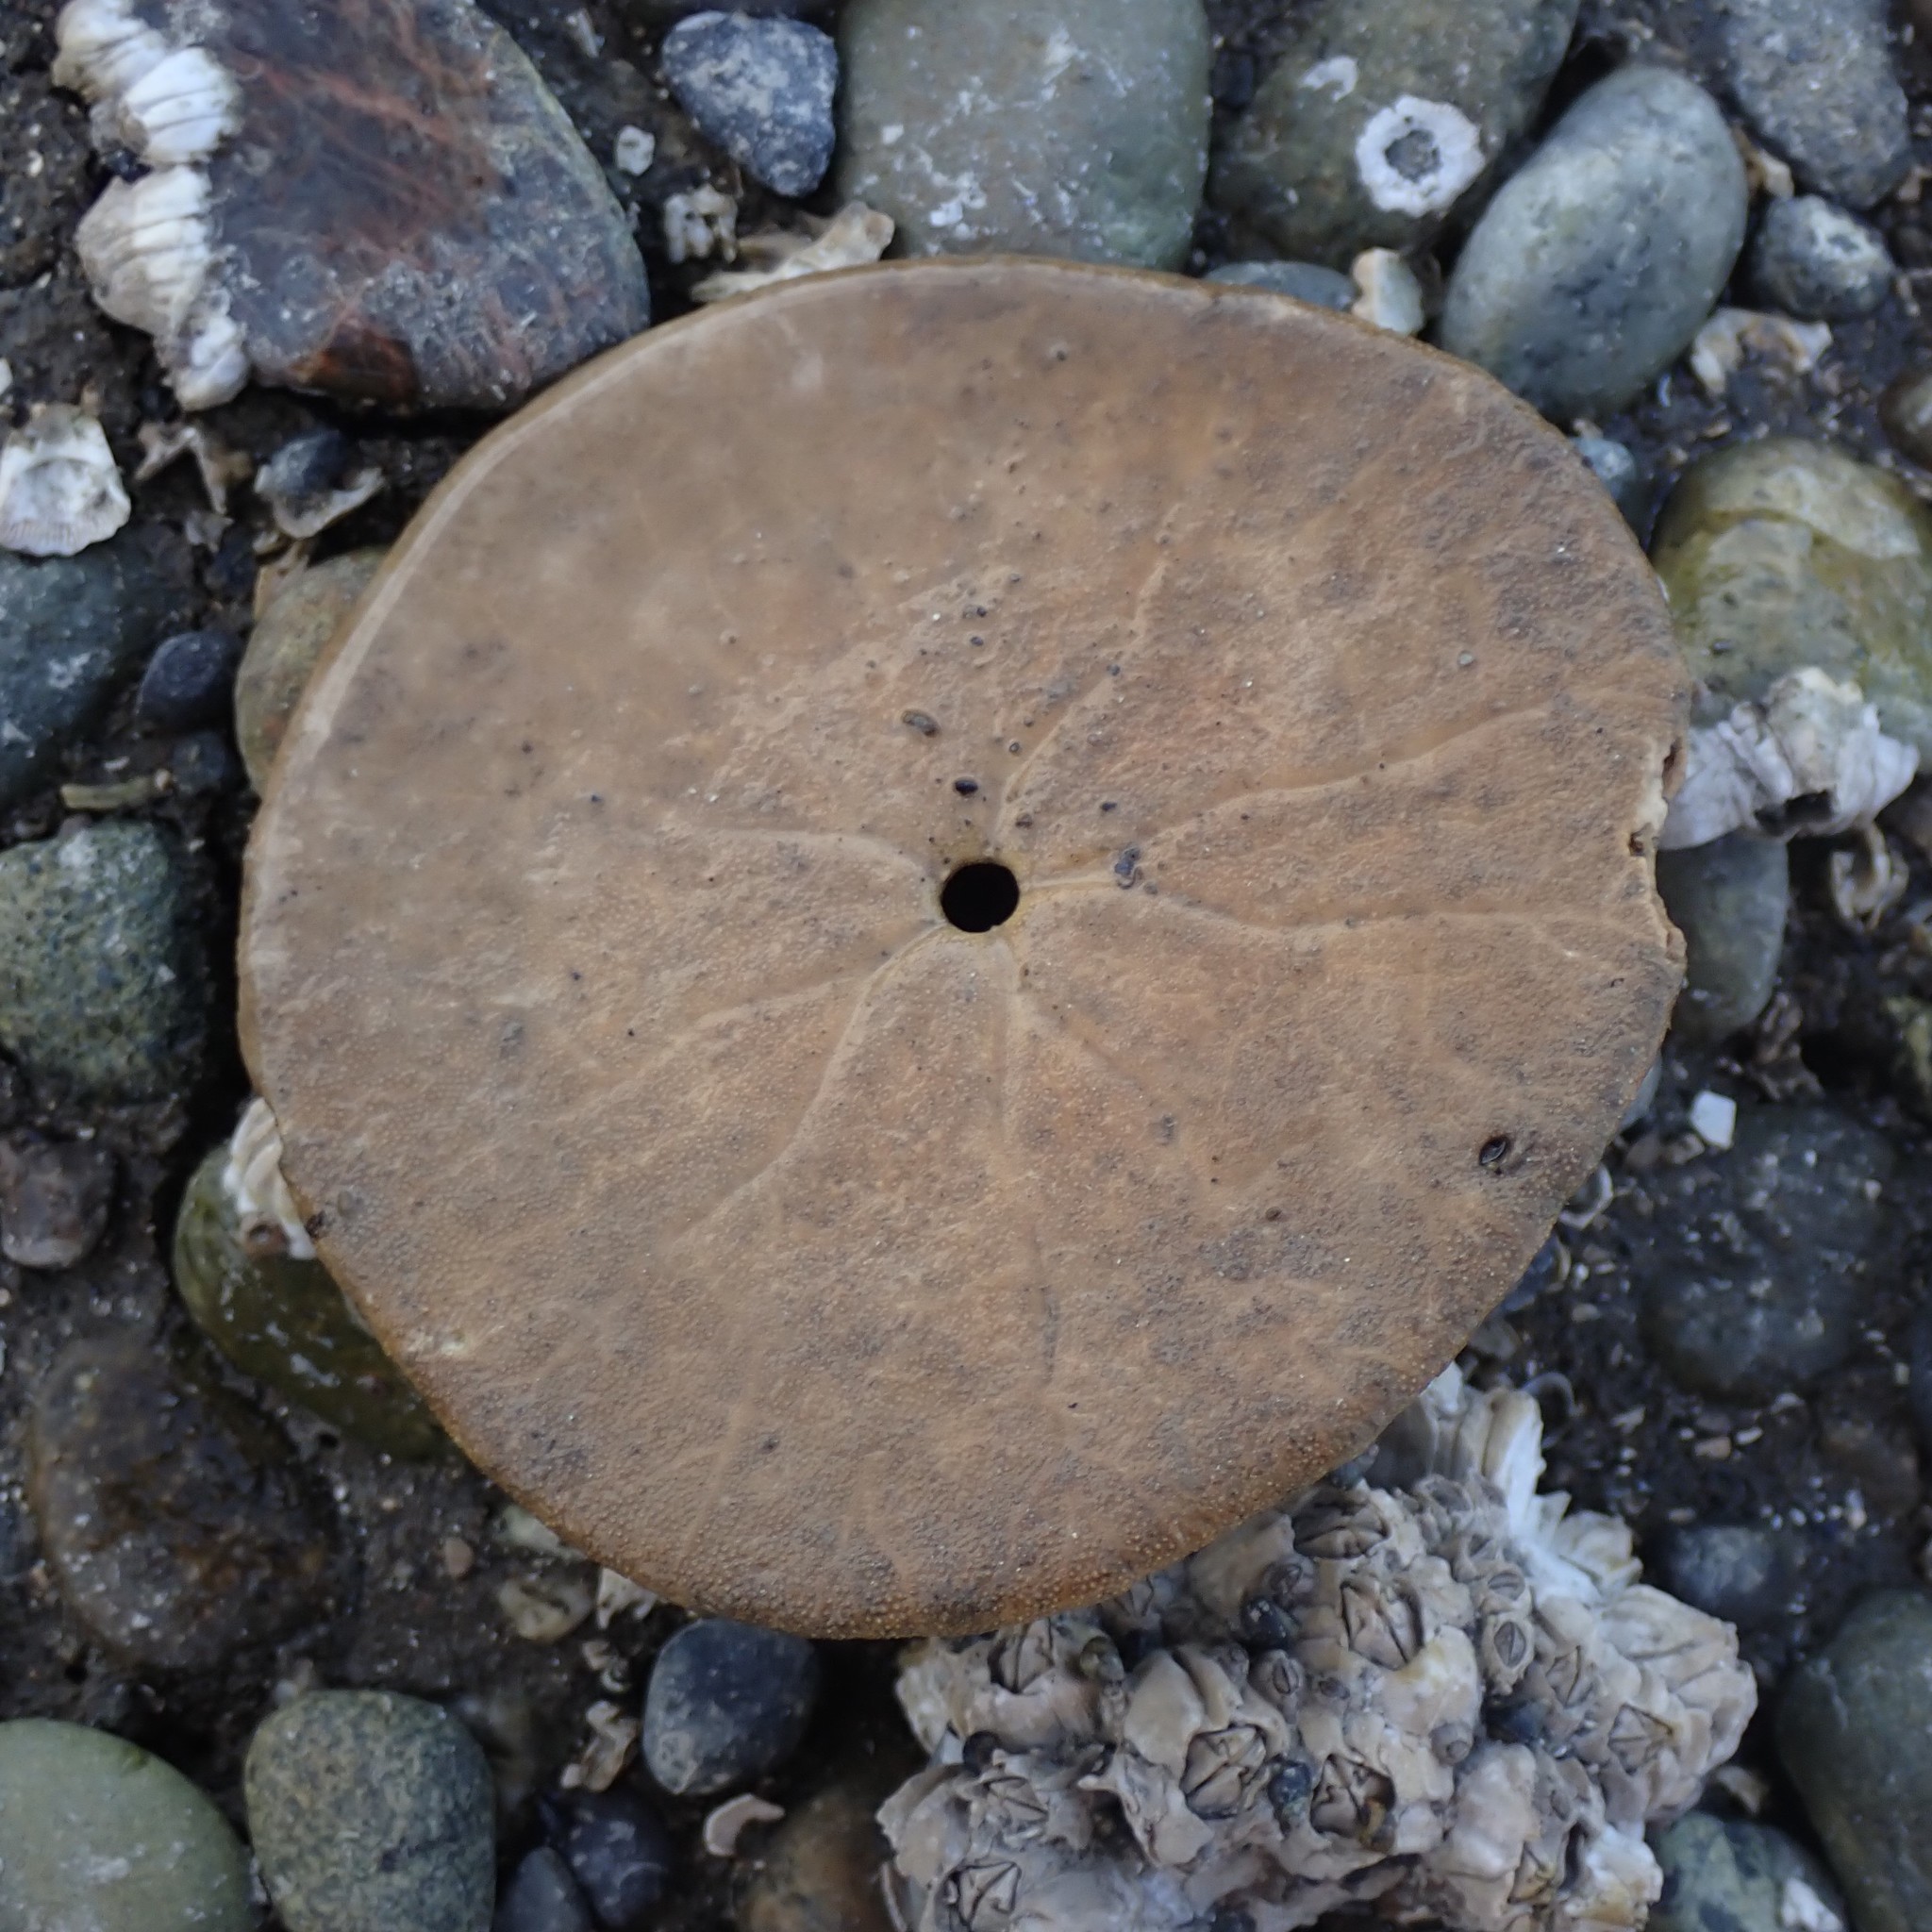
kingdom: Animalia
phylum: Echinodermata
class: Echinoidea
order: Echinolampadacea
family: Dendrasteridae
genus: Dendraster
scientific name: Dendraster excentricus
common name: Eccentric sand dollar sea urchin
